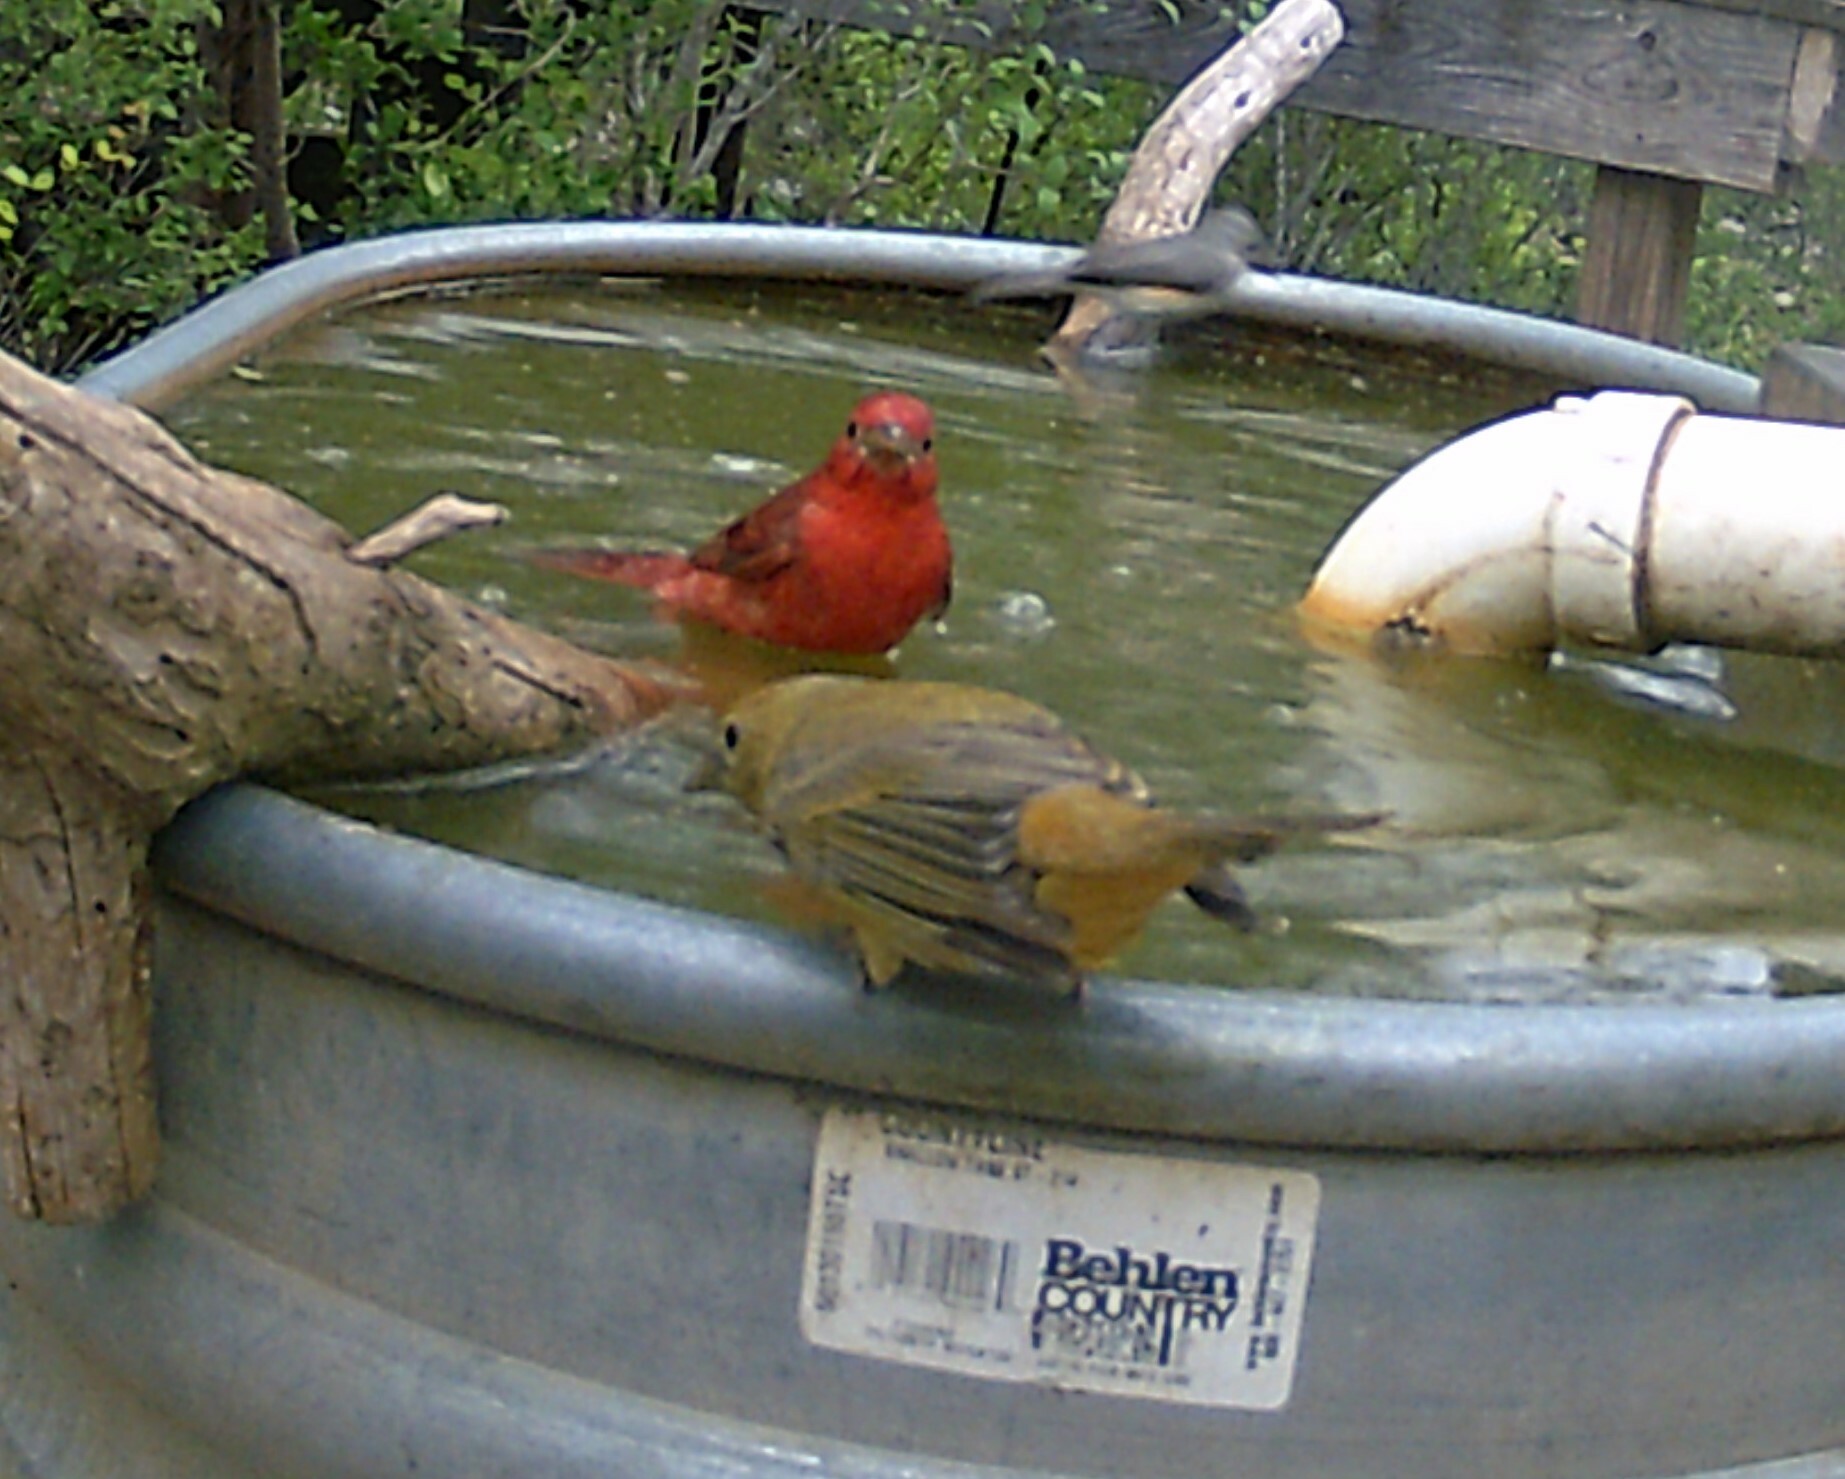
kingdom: Animalia
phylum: Chordata
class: Aves
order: Passeriformes
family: Cardinalidae
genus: Piranga
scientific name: Piranga rubra
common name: Summer tanager
